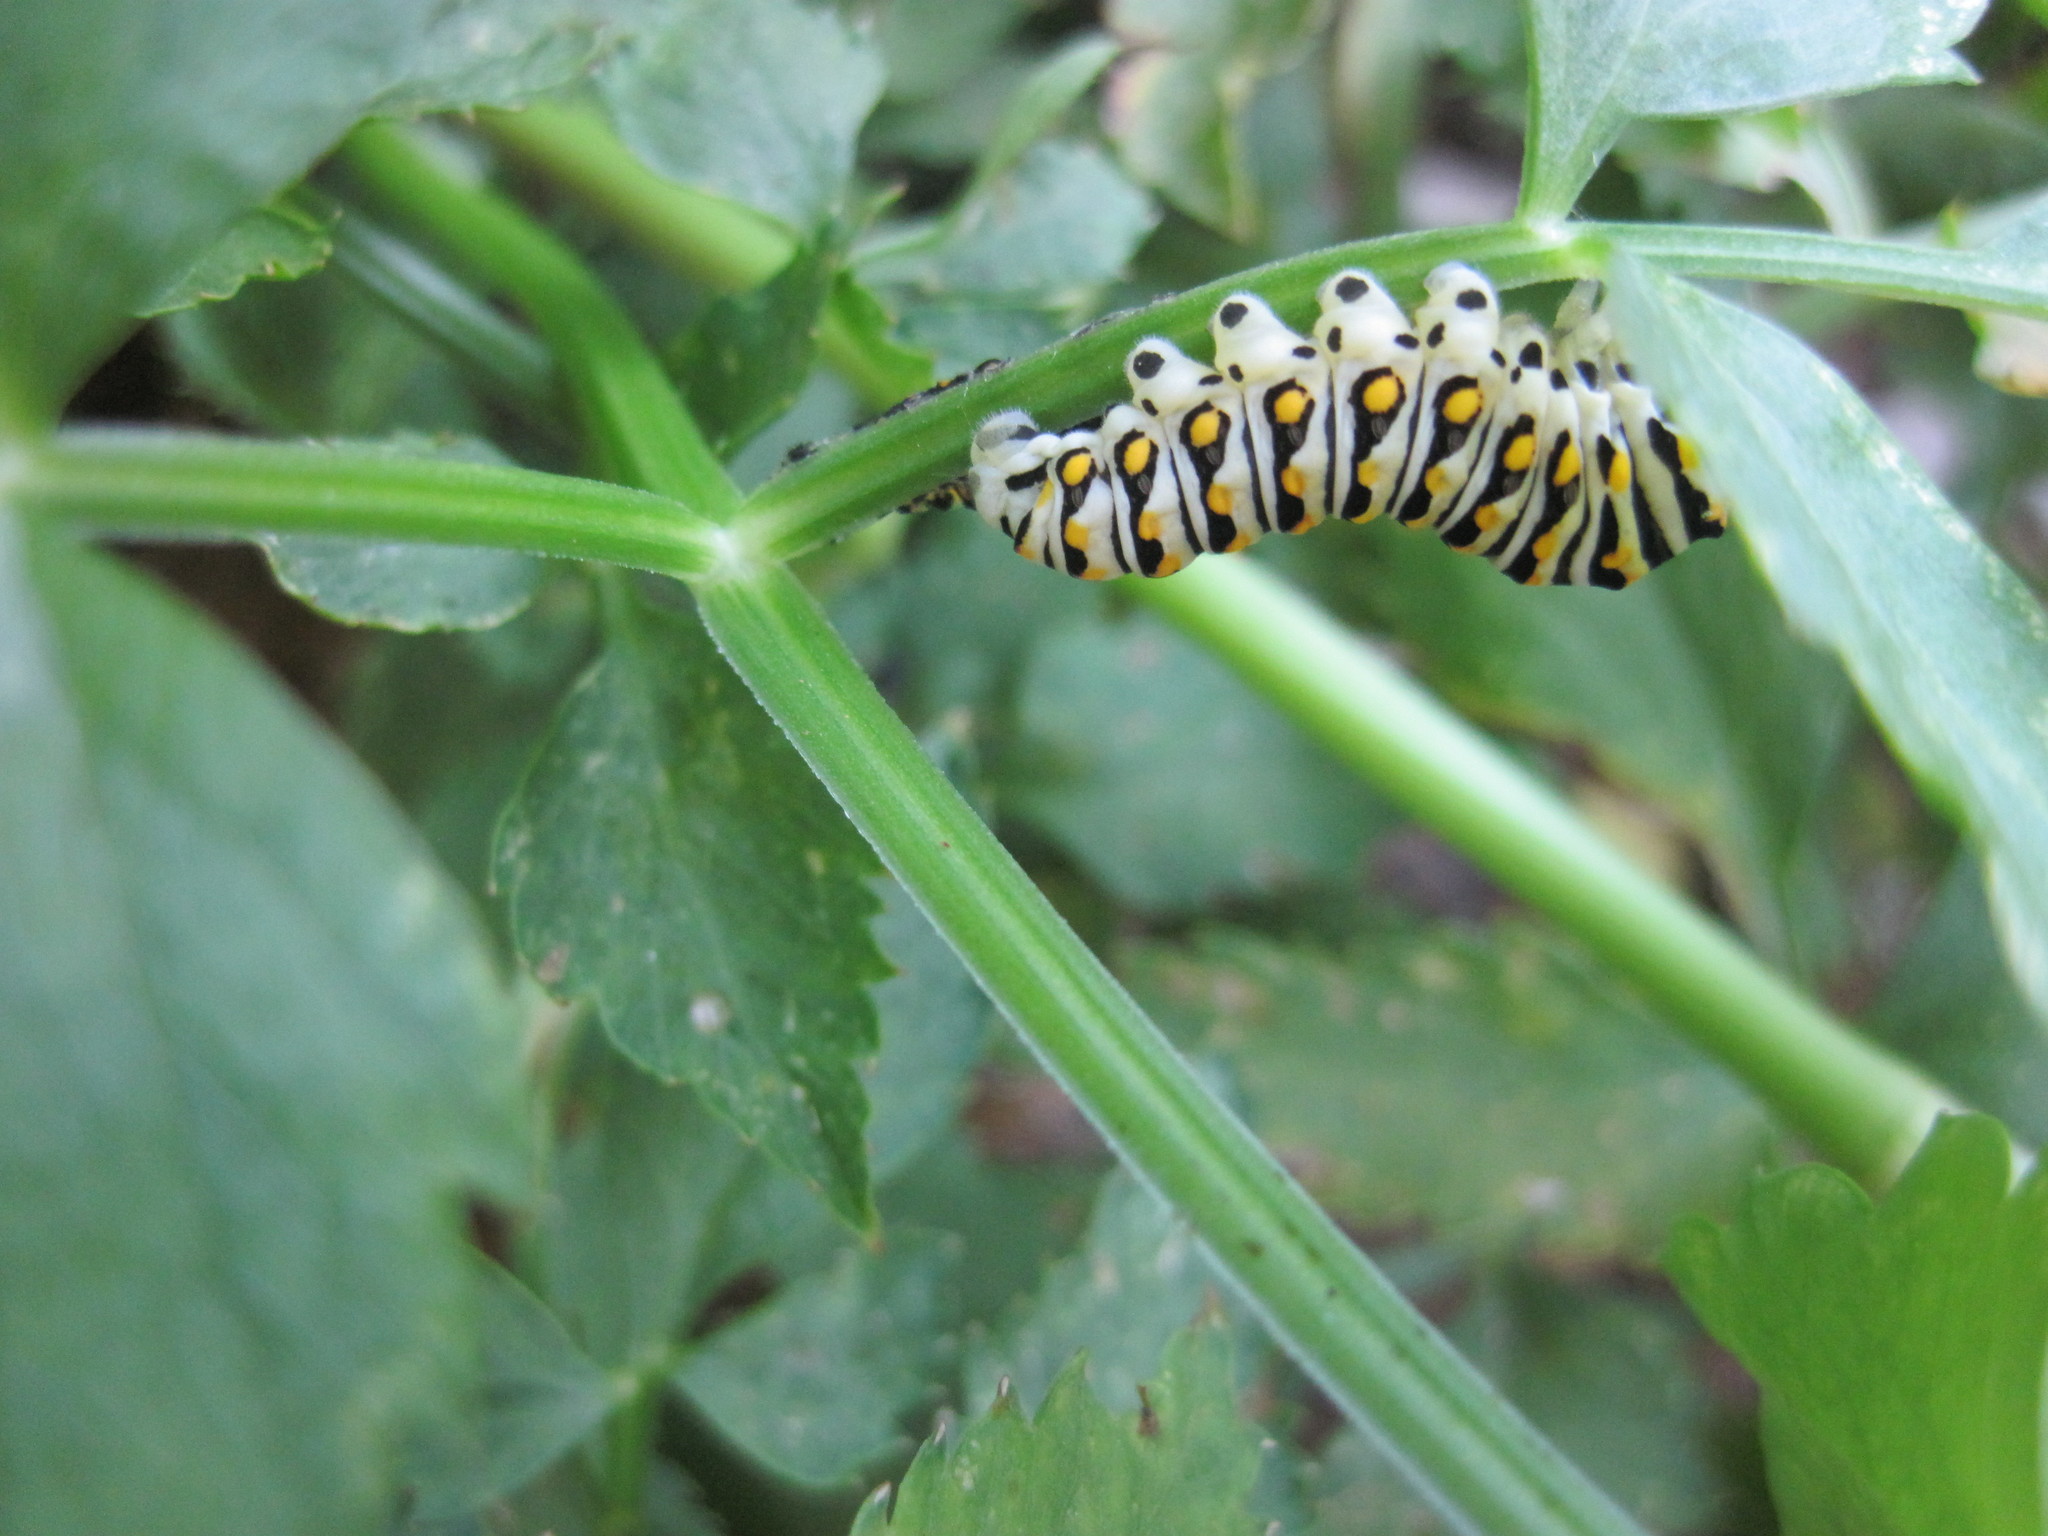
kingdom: Animalia
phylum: Arthropoda
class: Insecta
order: Lepidoptera
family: Papilionidae
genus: Papilio
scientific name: Papilio polyxenes
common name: Black swallowtail
